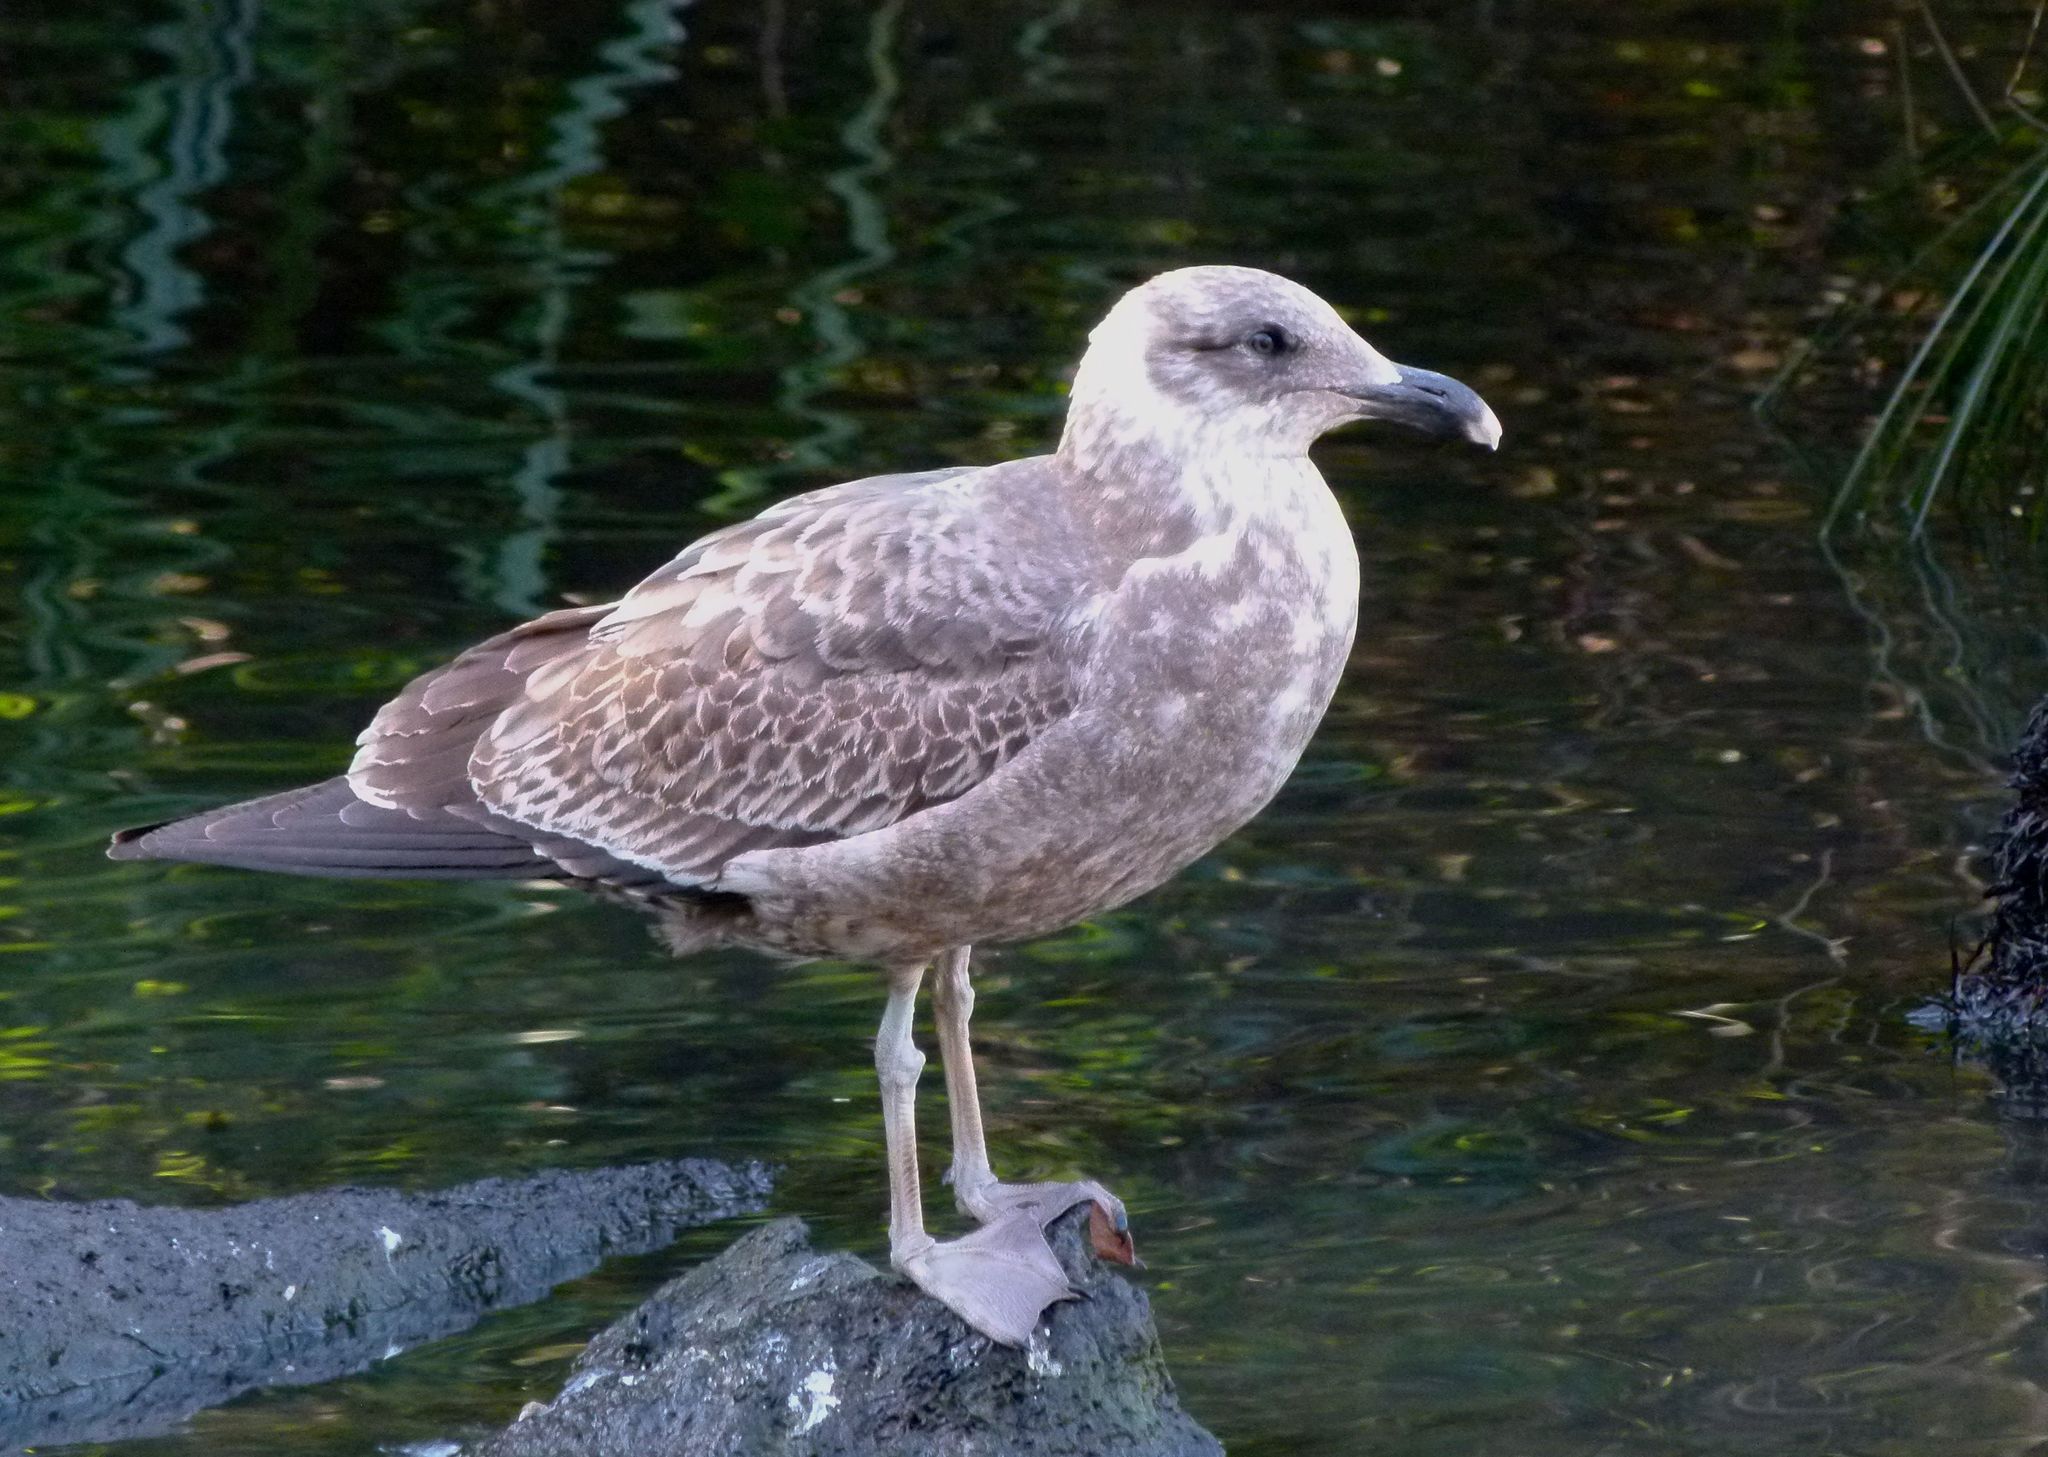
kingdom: Animalia
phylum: Chordata
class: Aves
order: Charadriiformes
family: Laridae
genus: Larus
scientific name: Larus dominicanus
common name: Kelp gull
